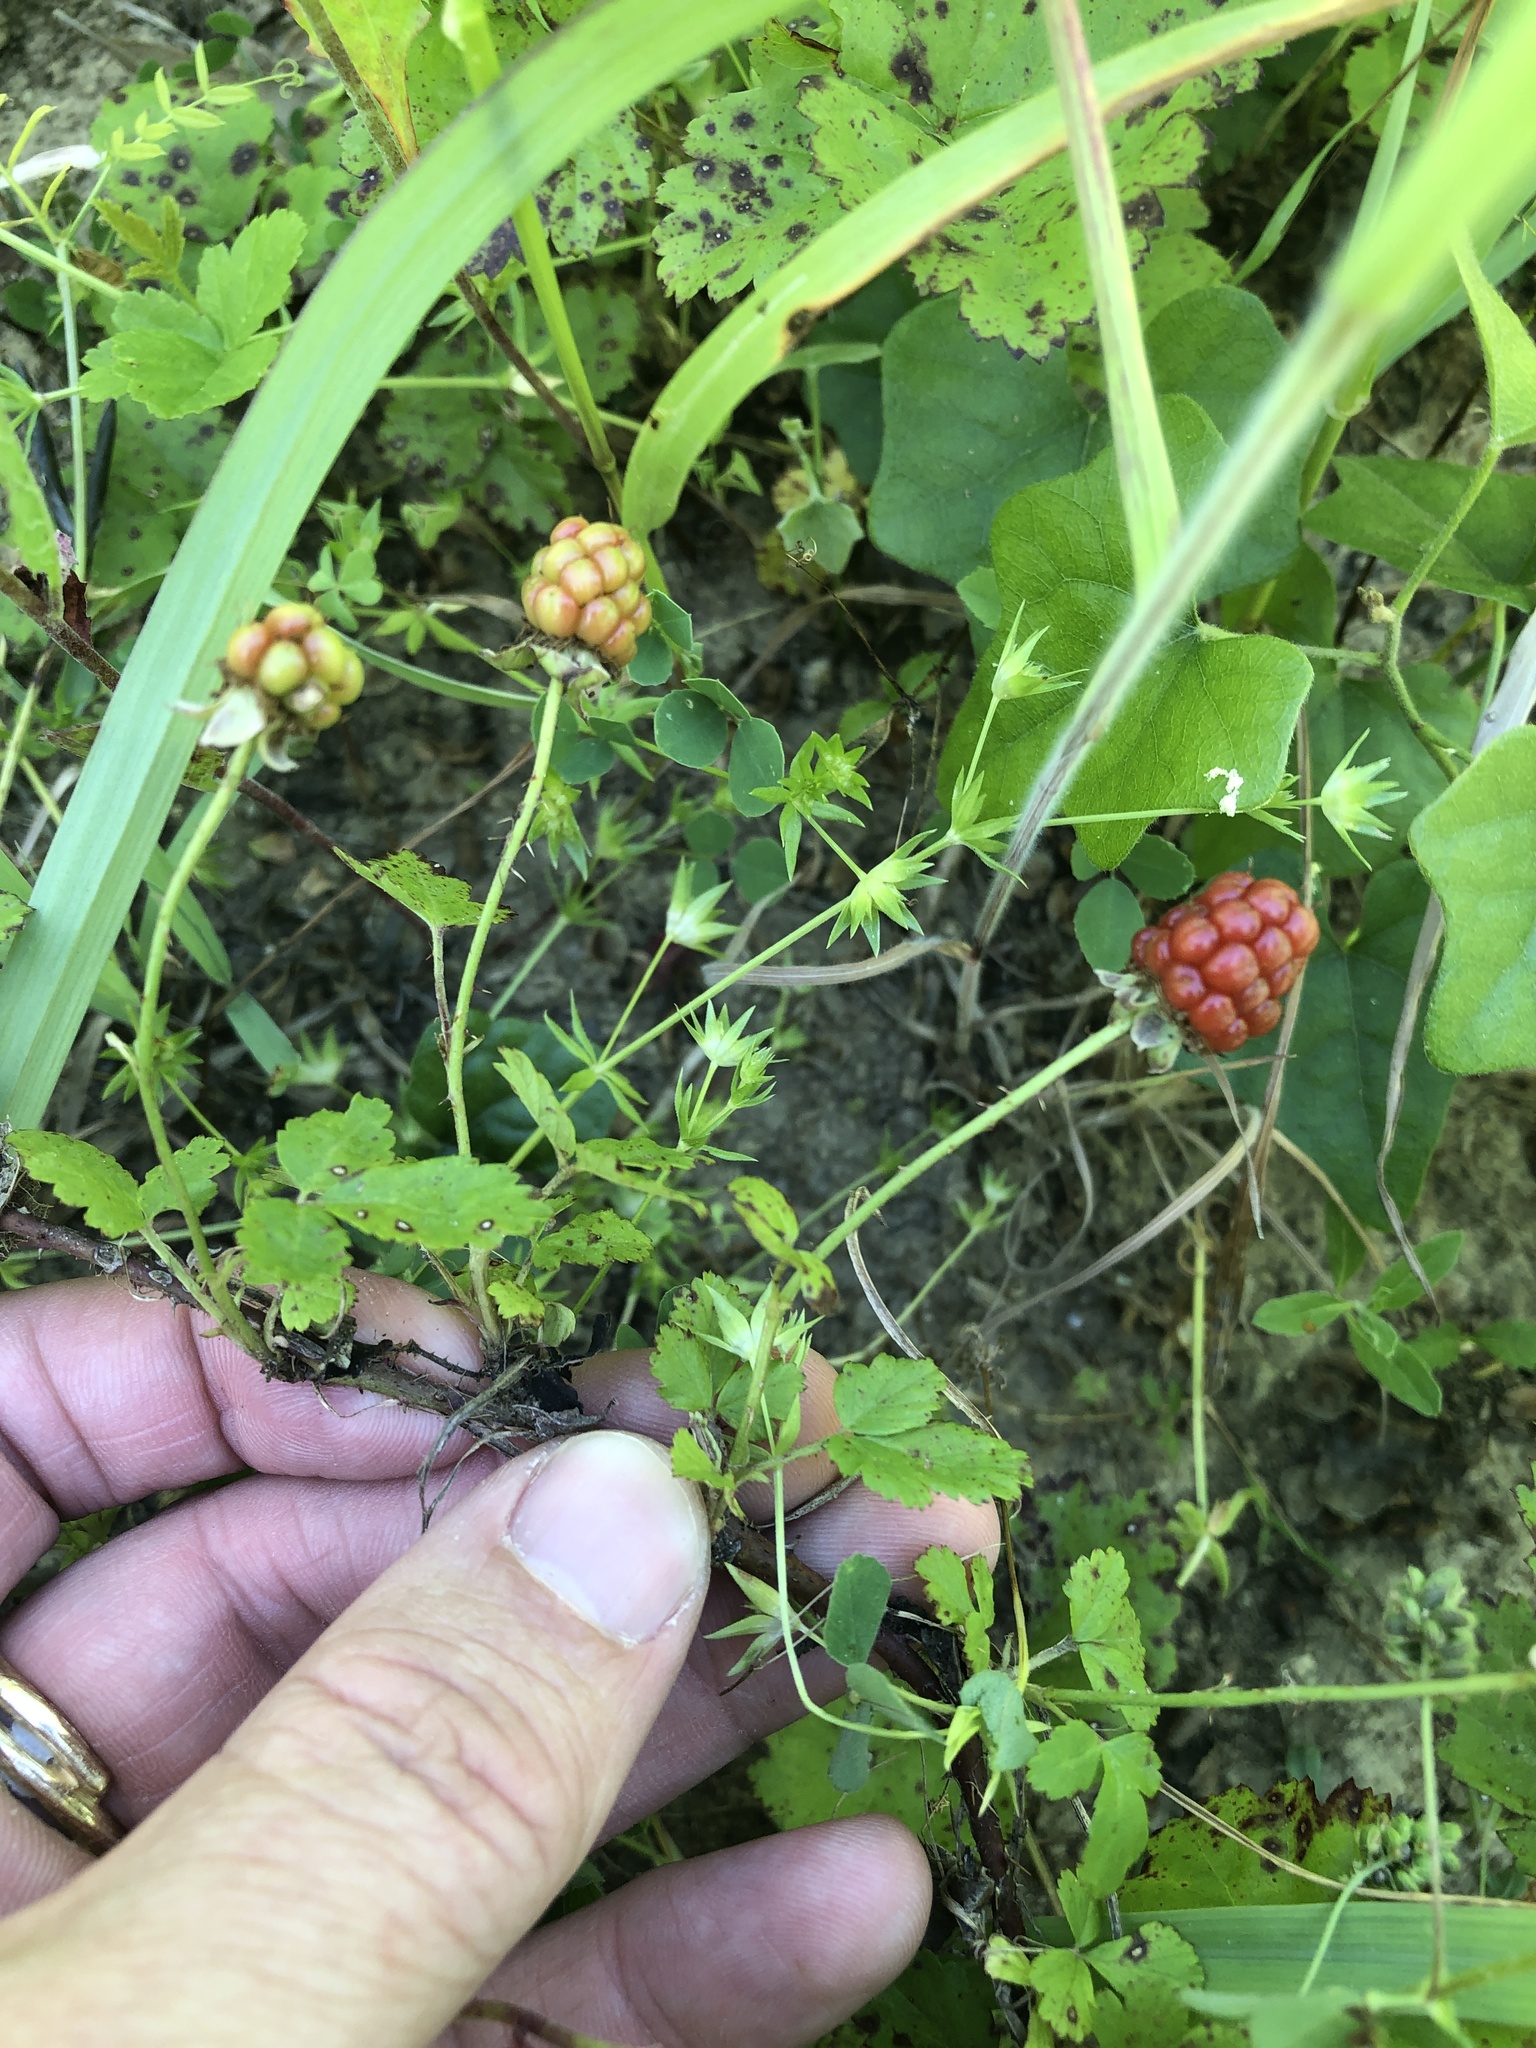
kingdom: Plantae
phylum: Tracheophyta
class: Magnoliopsida
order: Rosales
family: Rosaceae
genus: Rubus
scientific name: Rubus trivialis
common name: Southern dewberry
